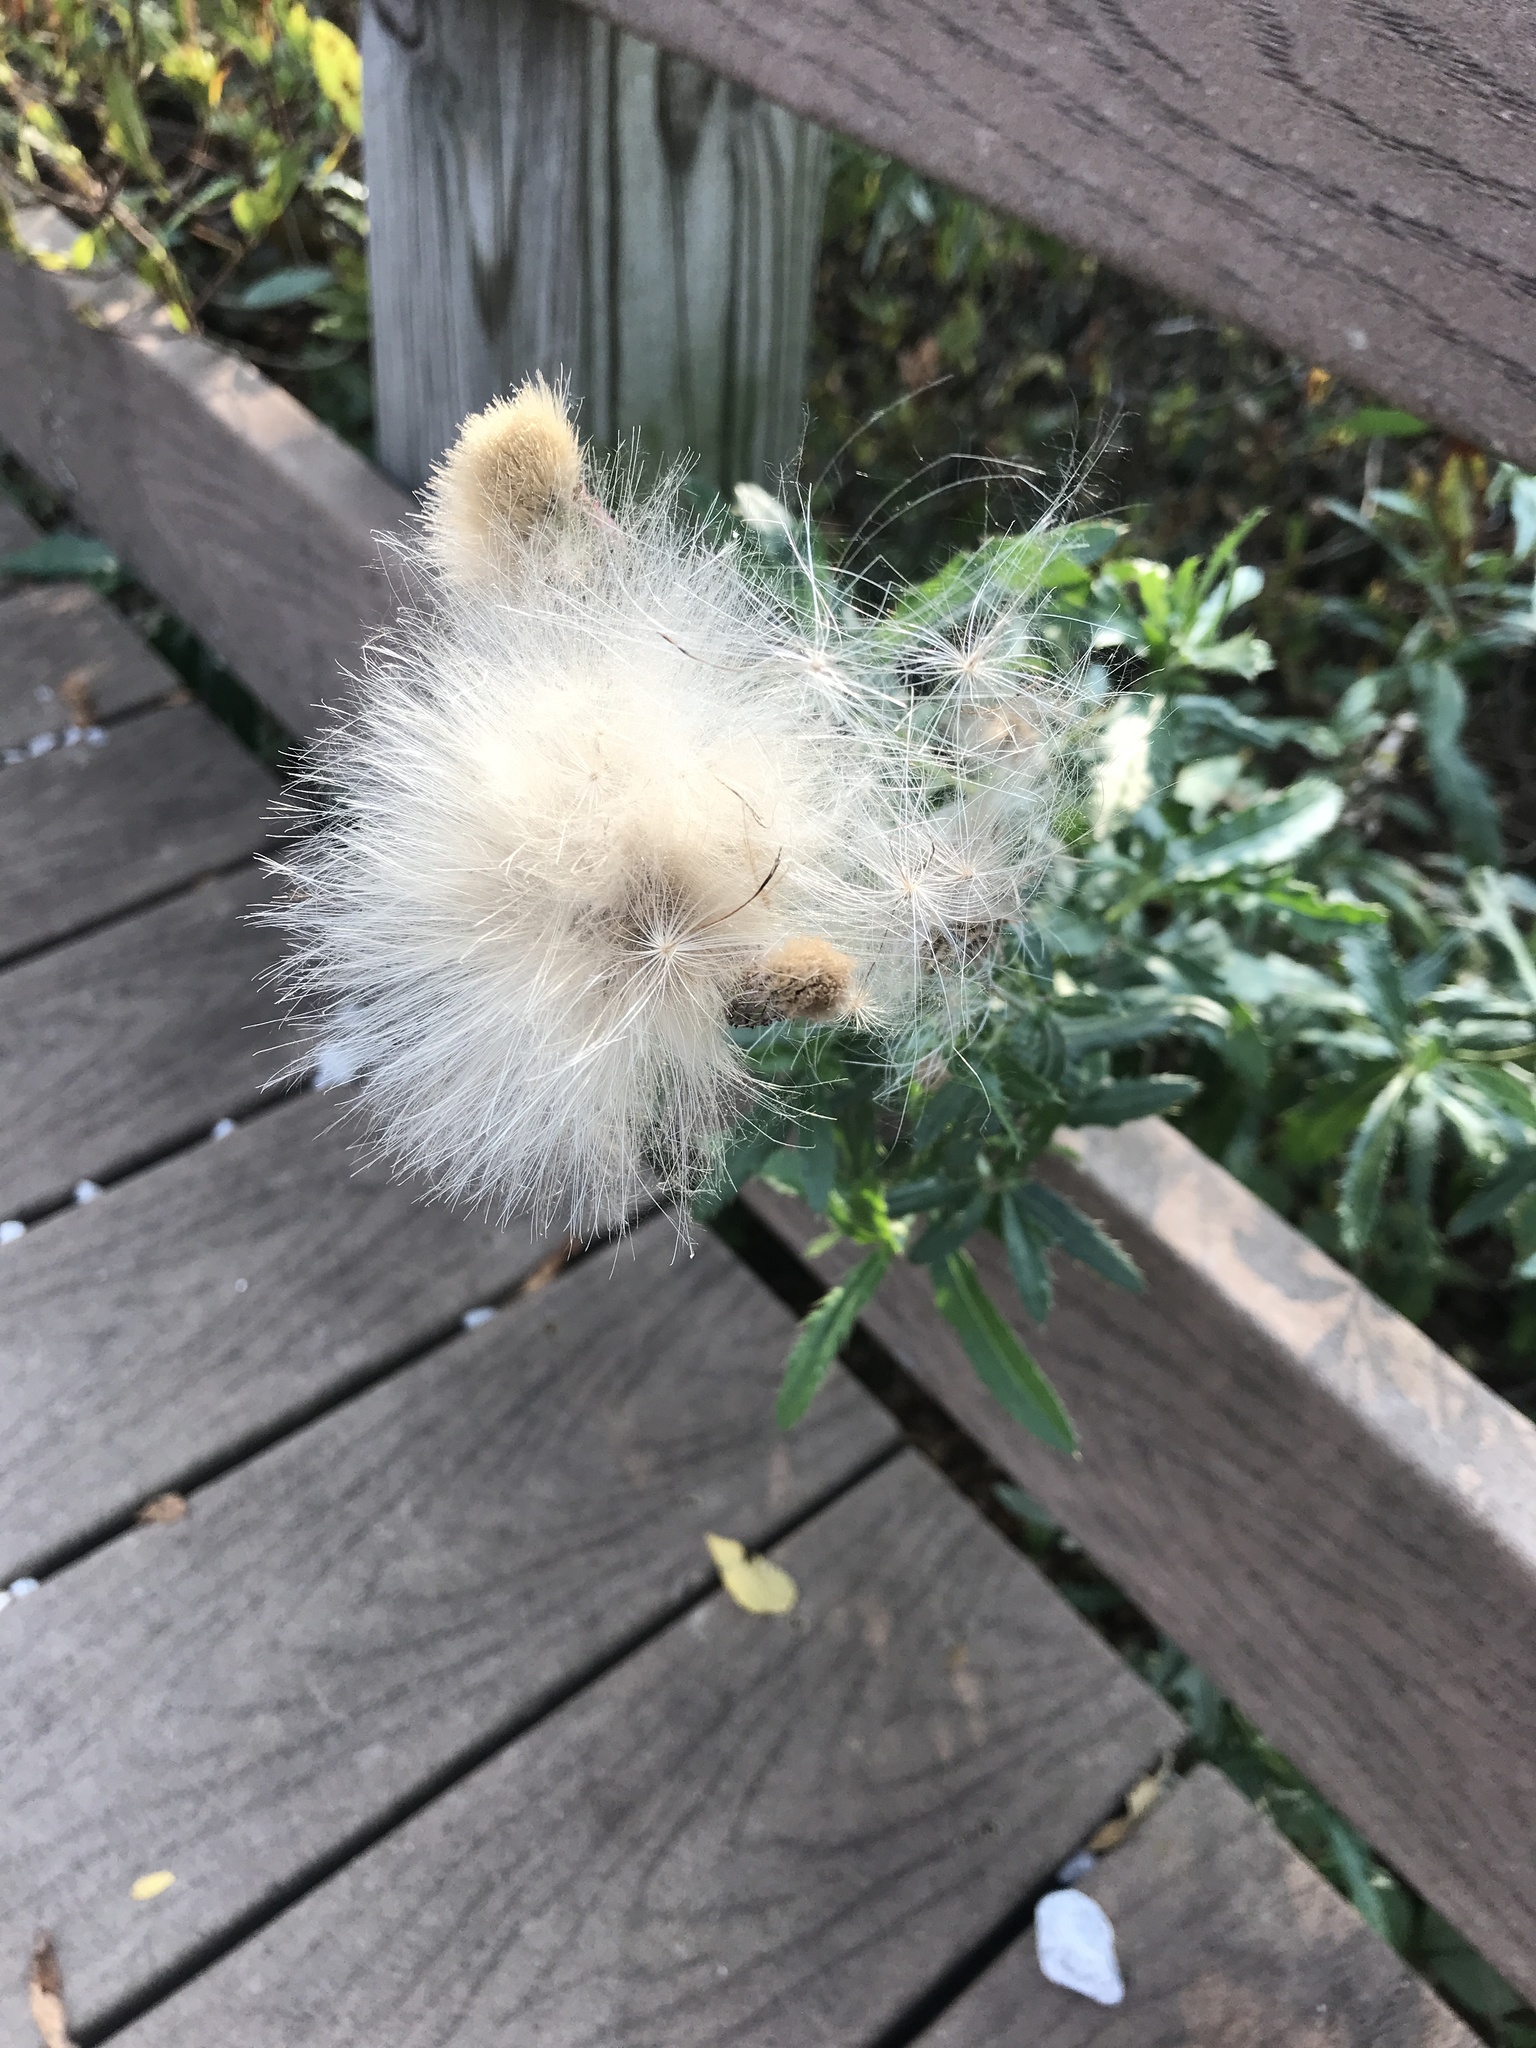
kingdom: Plantae
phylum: Tracheophyta
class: Magnoliopsida
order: Asterales
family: Asteraceae
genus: Cirsium
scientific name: Cirsium arvense
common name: Creeping thistle
